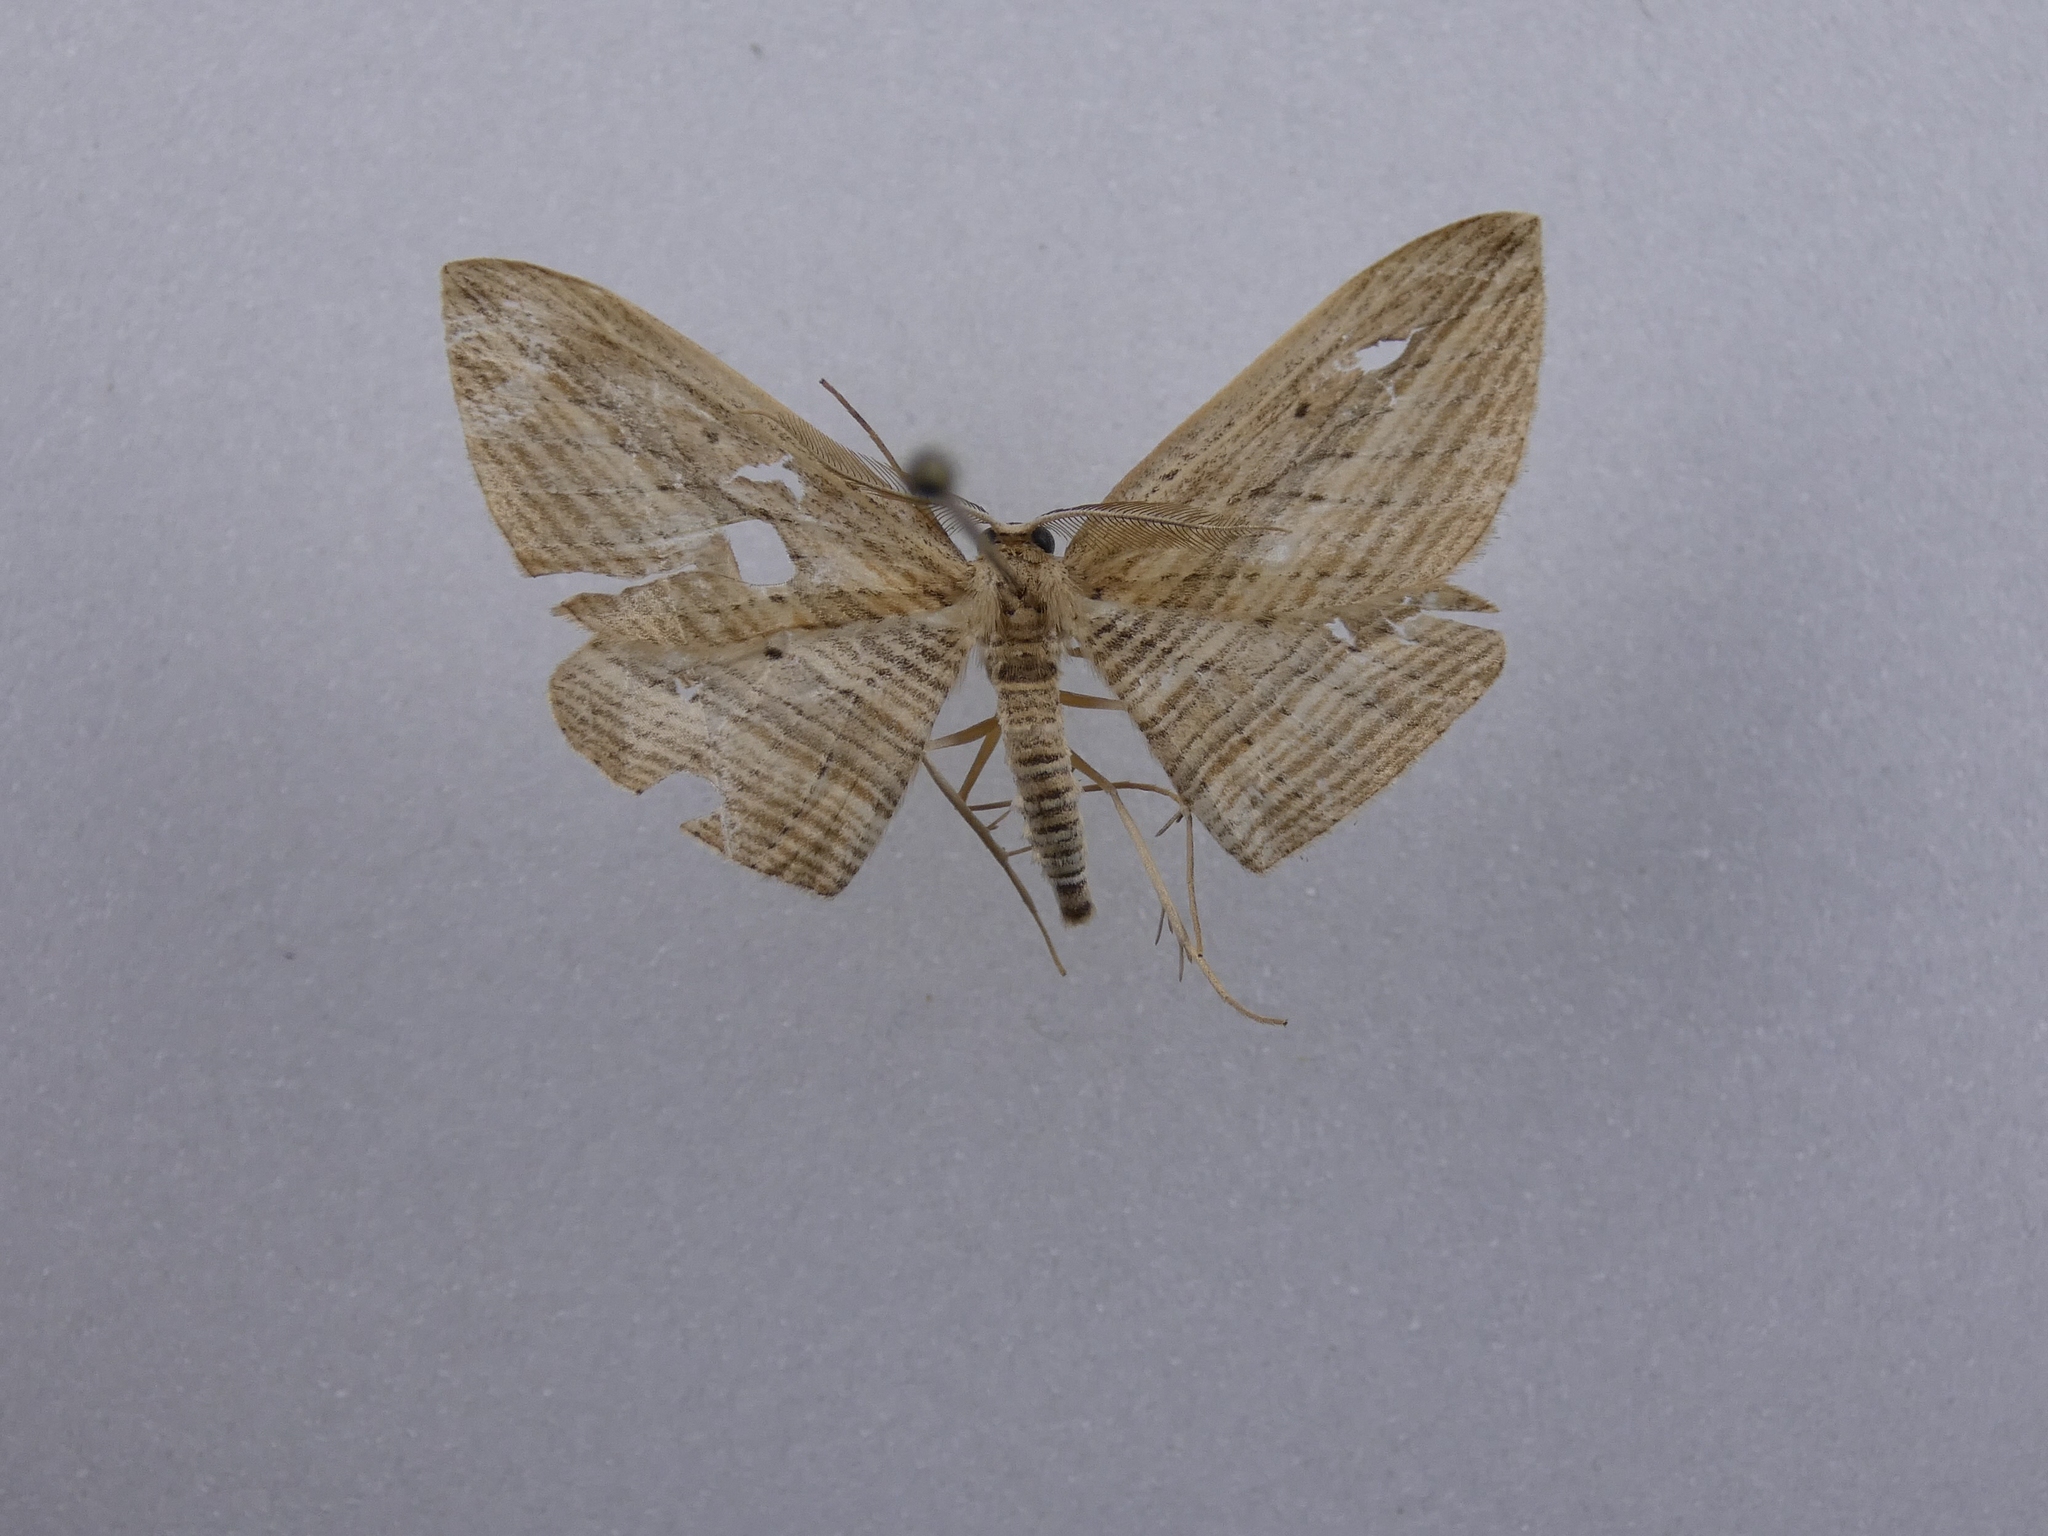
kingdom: Animalia
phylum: Arthropoda
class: Insecta
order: Lepidoptera
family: Geometridae
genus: Epiphryne
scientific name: Epiphryne verriculata
